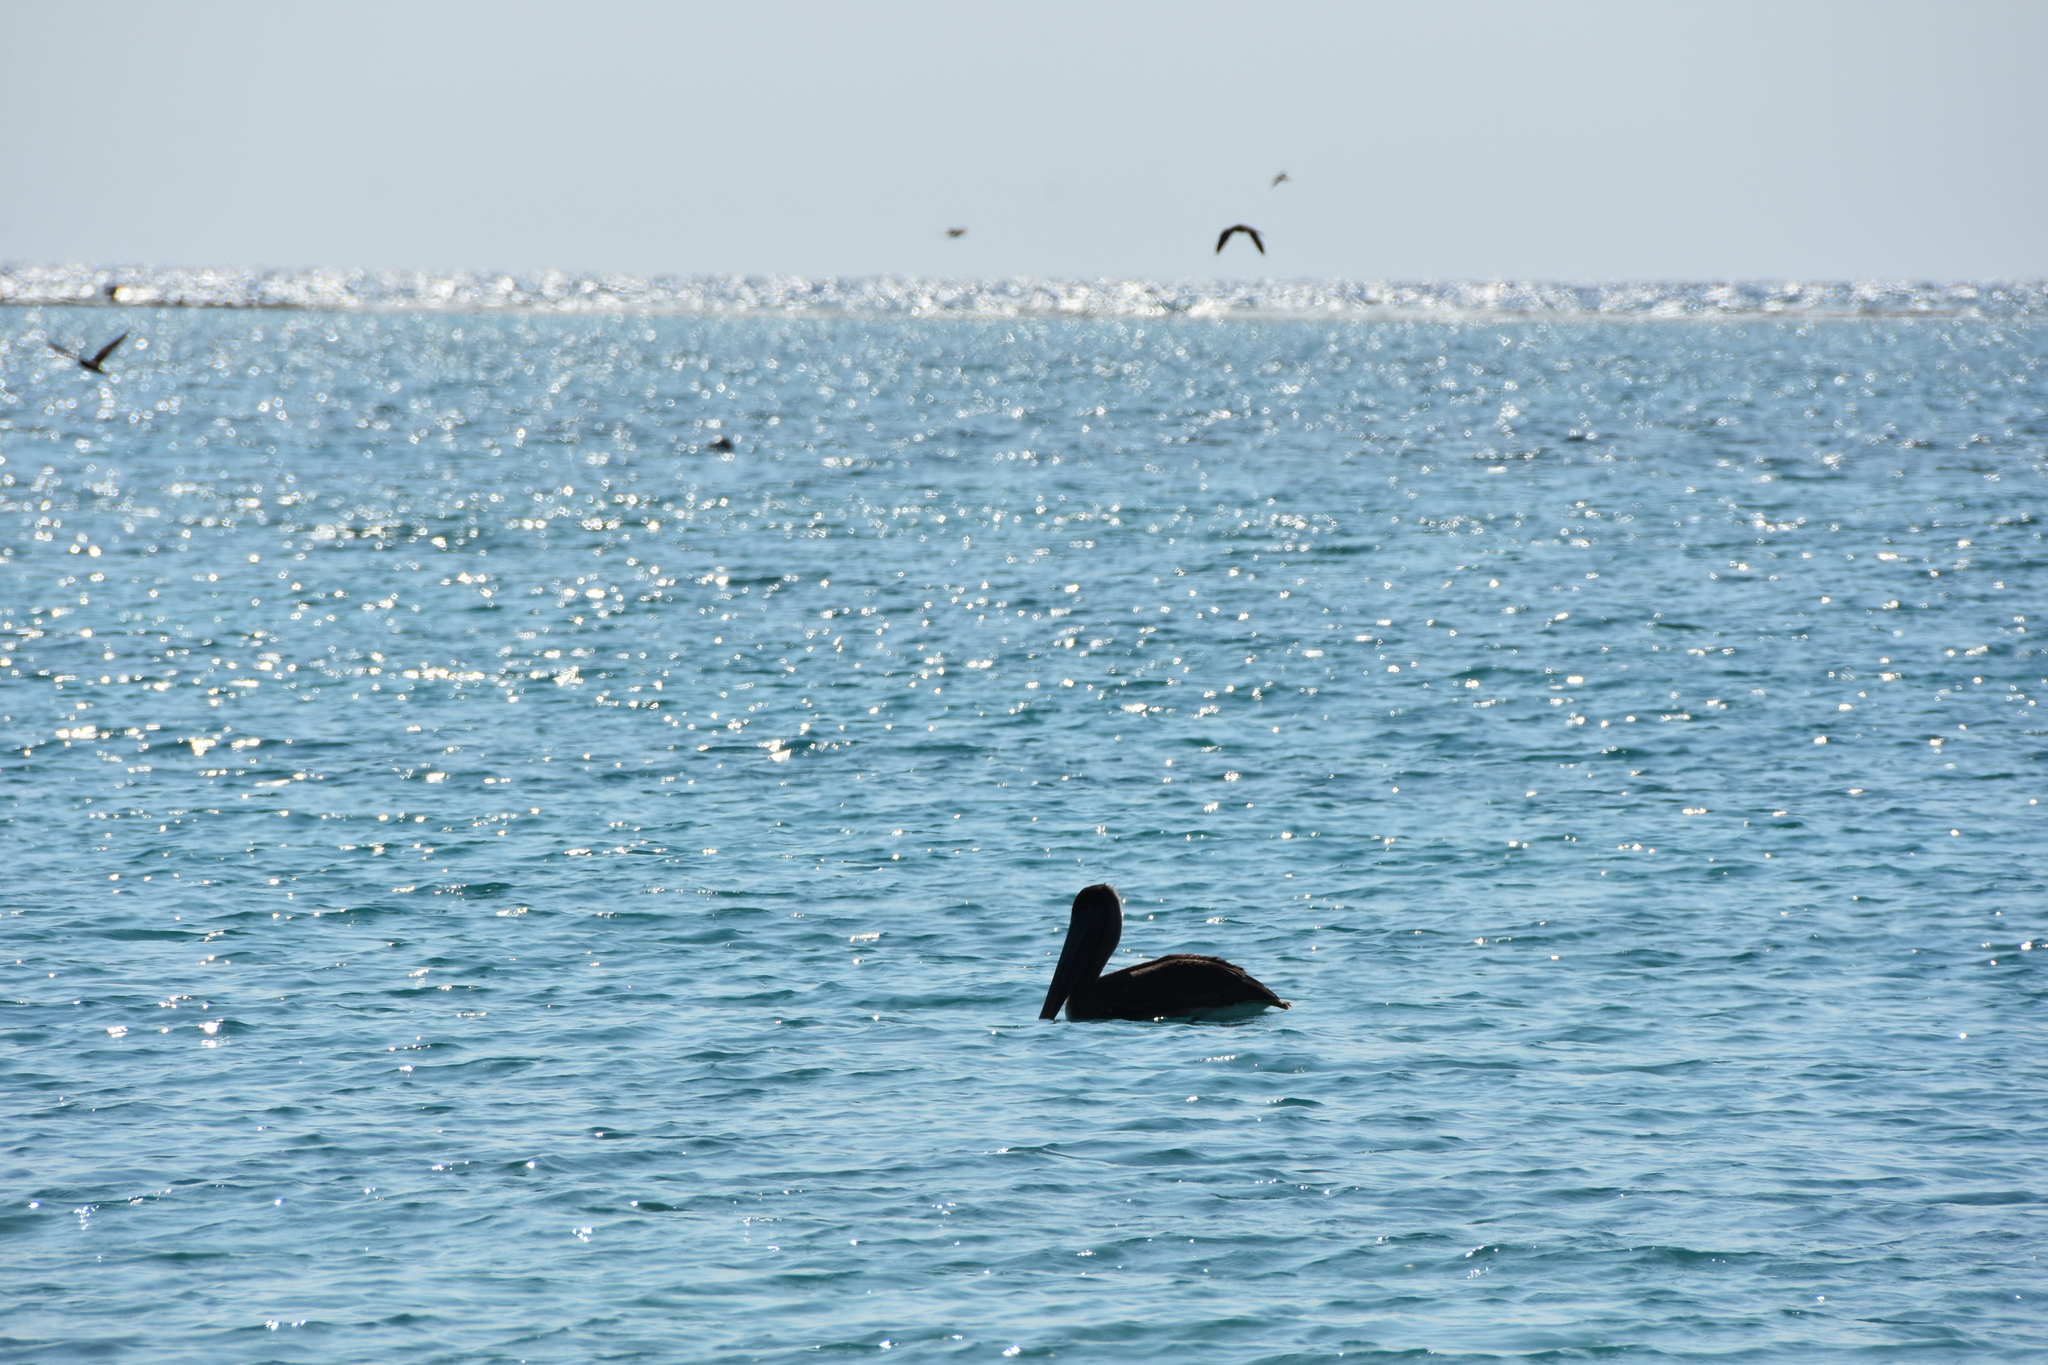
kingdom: Animalia
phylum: Chordata
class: Aves
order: Pelecaniformes
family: Pelecanidae
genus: Pelecanus
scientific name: Pelecanus occidentalis
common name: Brown pelican
